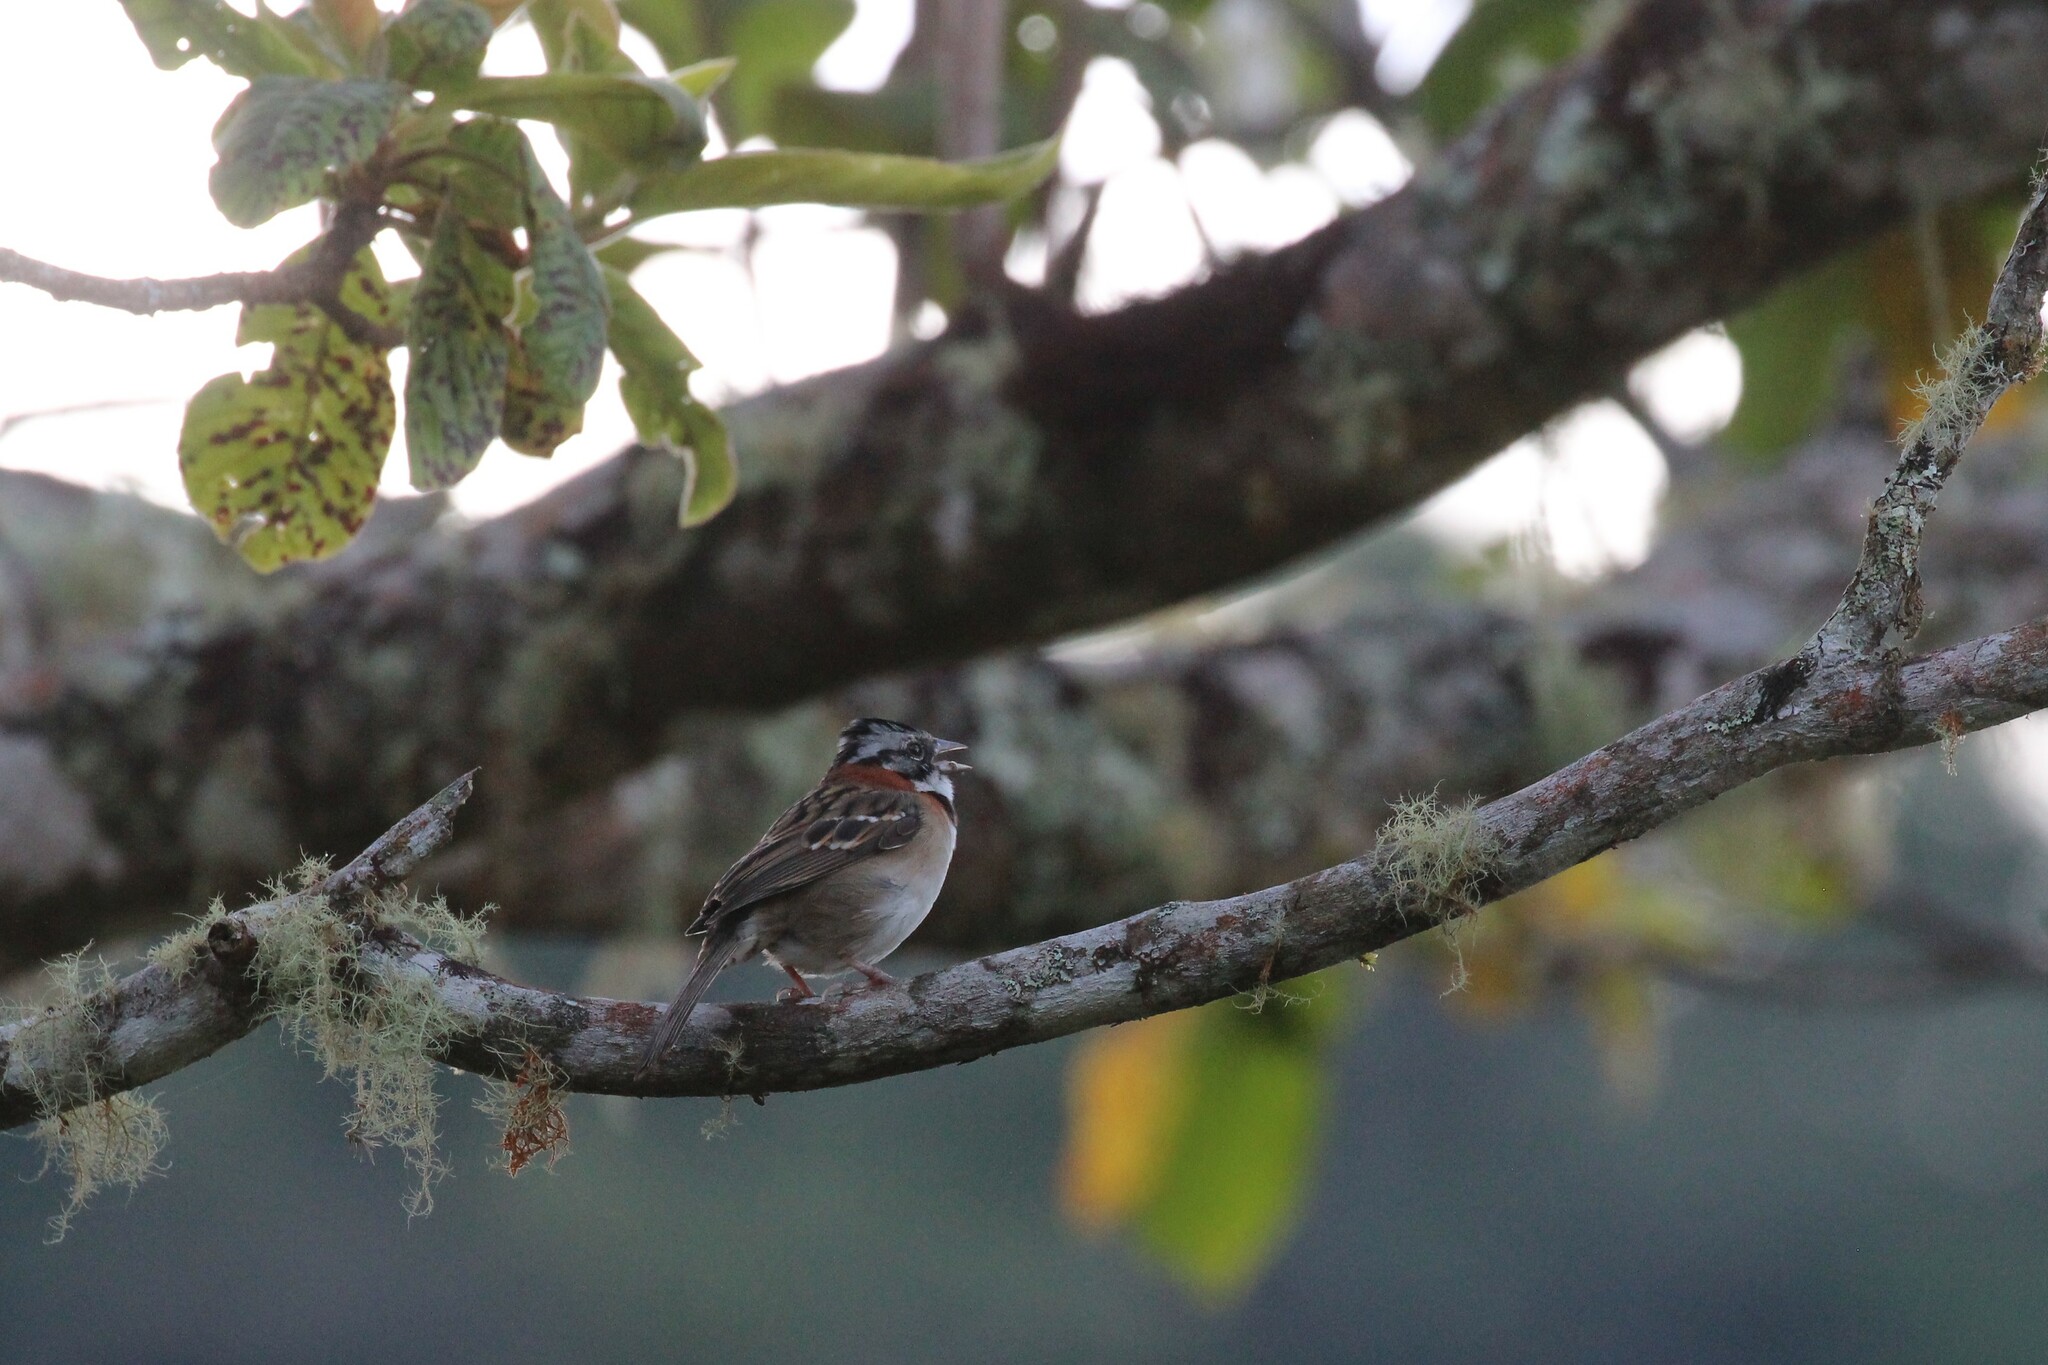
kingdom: Animalia
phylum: Chordata
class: Aves
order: Passeriformes
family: Passerellidae
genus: Zonotrichia
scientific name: Zonotrichia capensis
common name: Rufous-collared sparrow
